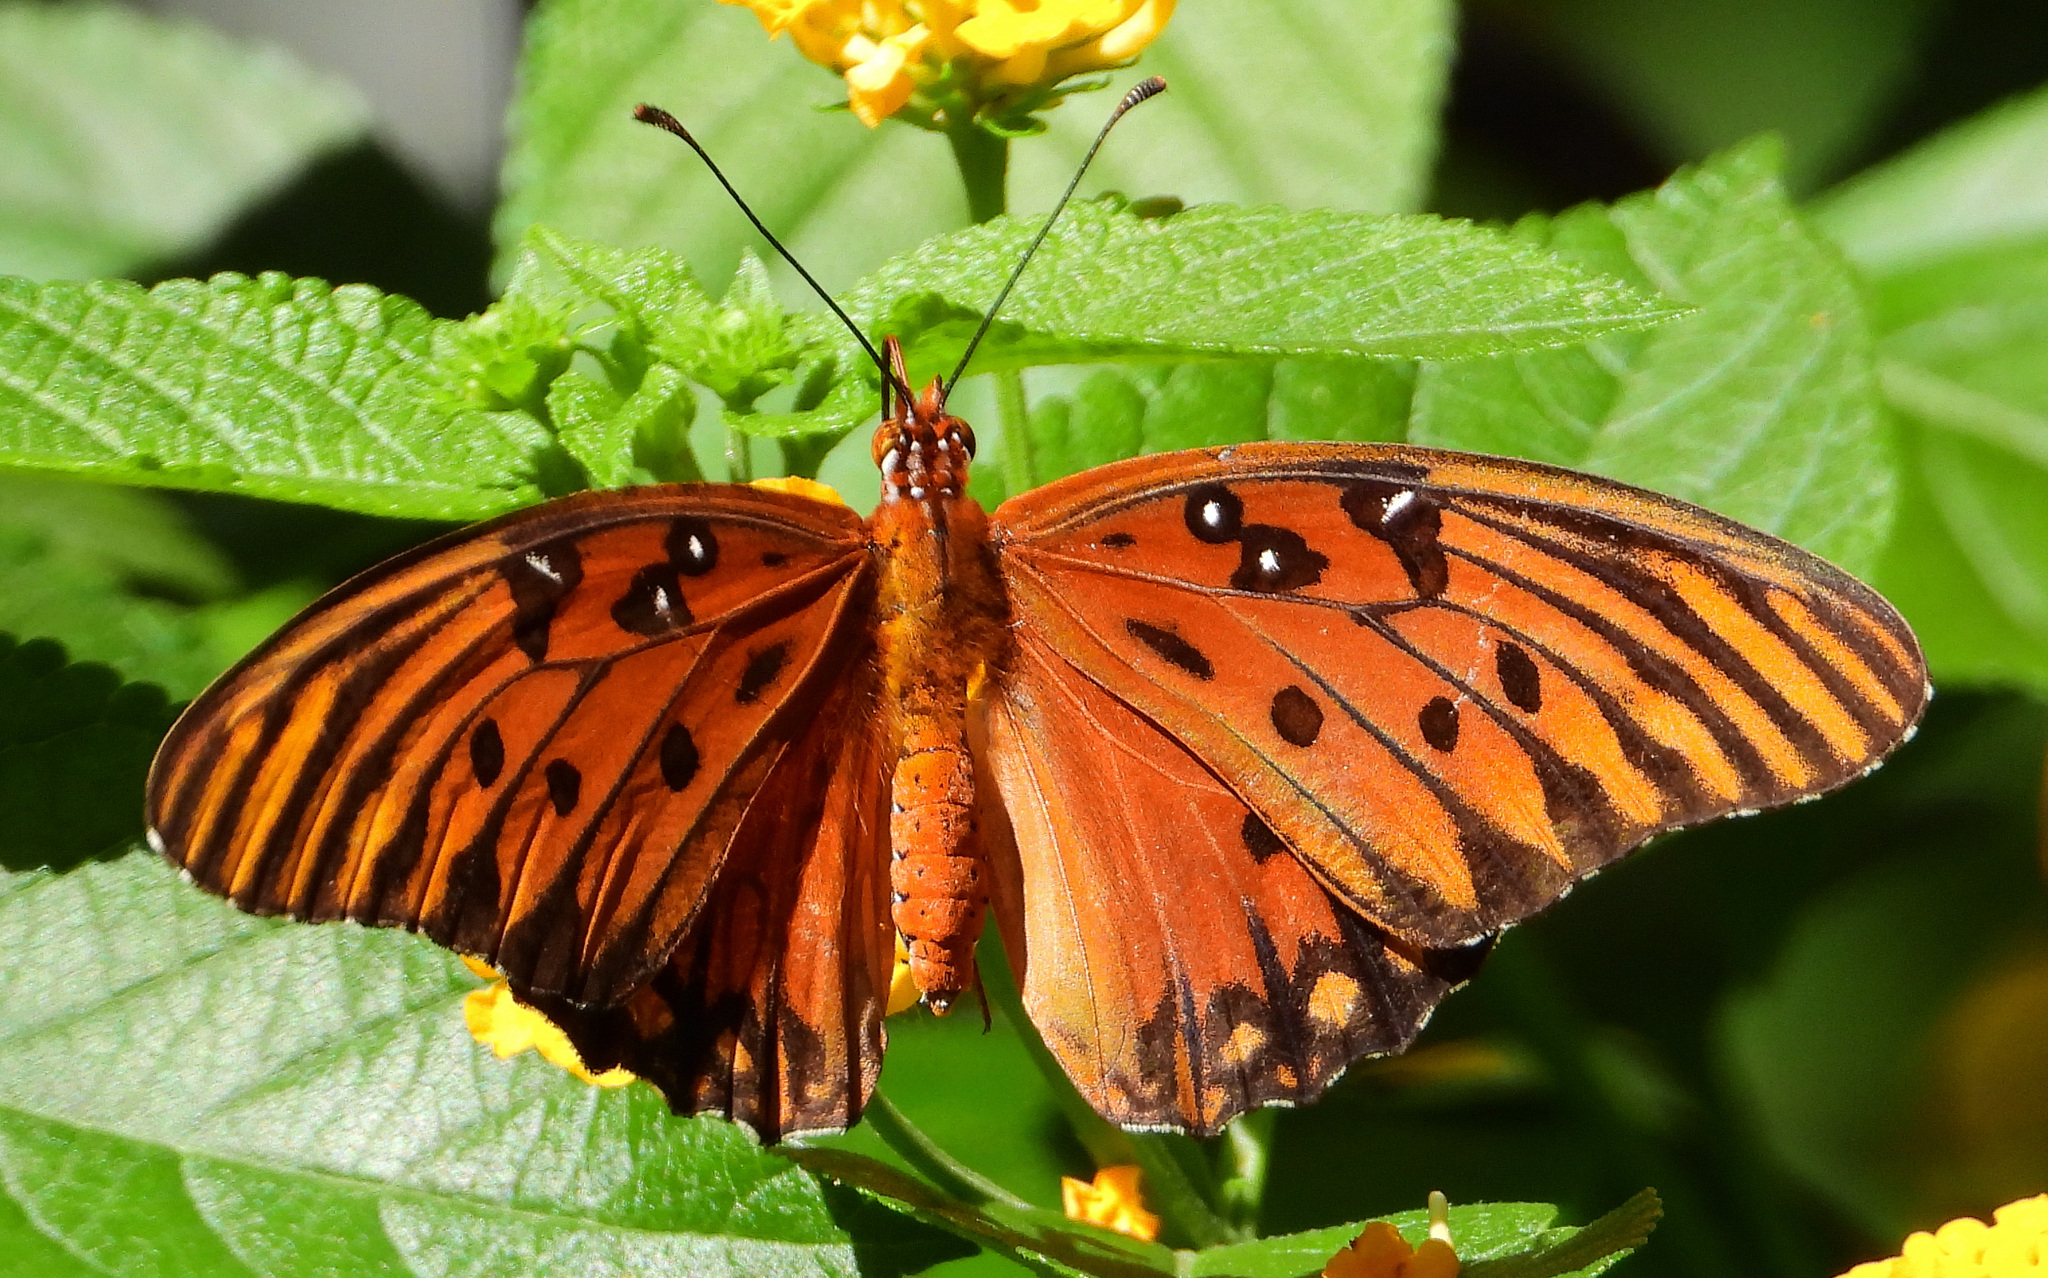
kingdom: Animalia
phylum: Arthropoda
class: Insecta
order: Lepidoptera
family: Nymphalidae
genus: Dione
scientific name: Dione vanillae
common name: Gulf fritillary
